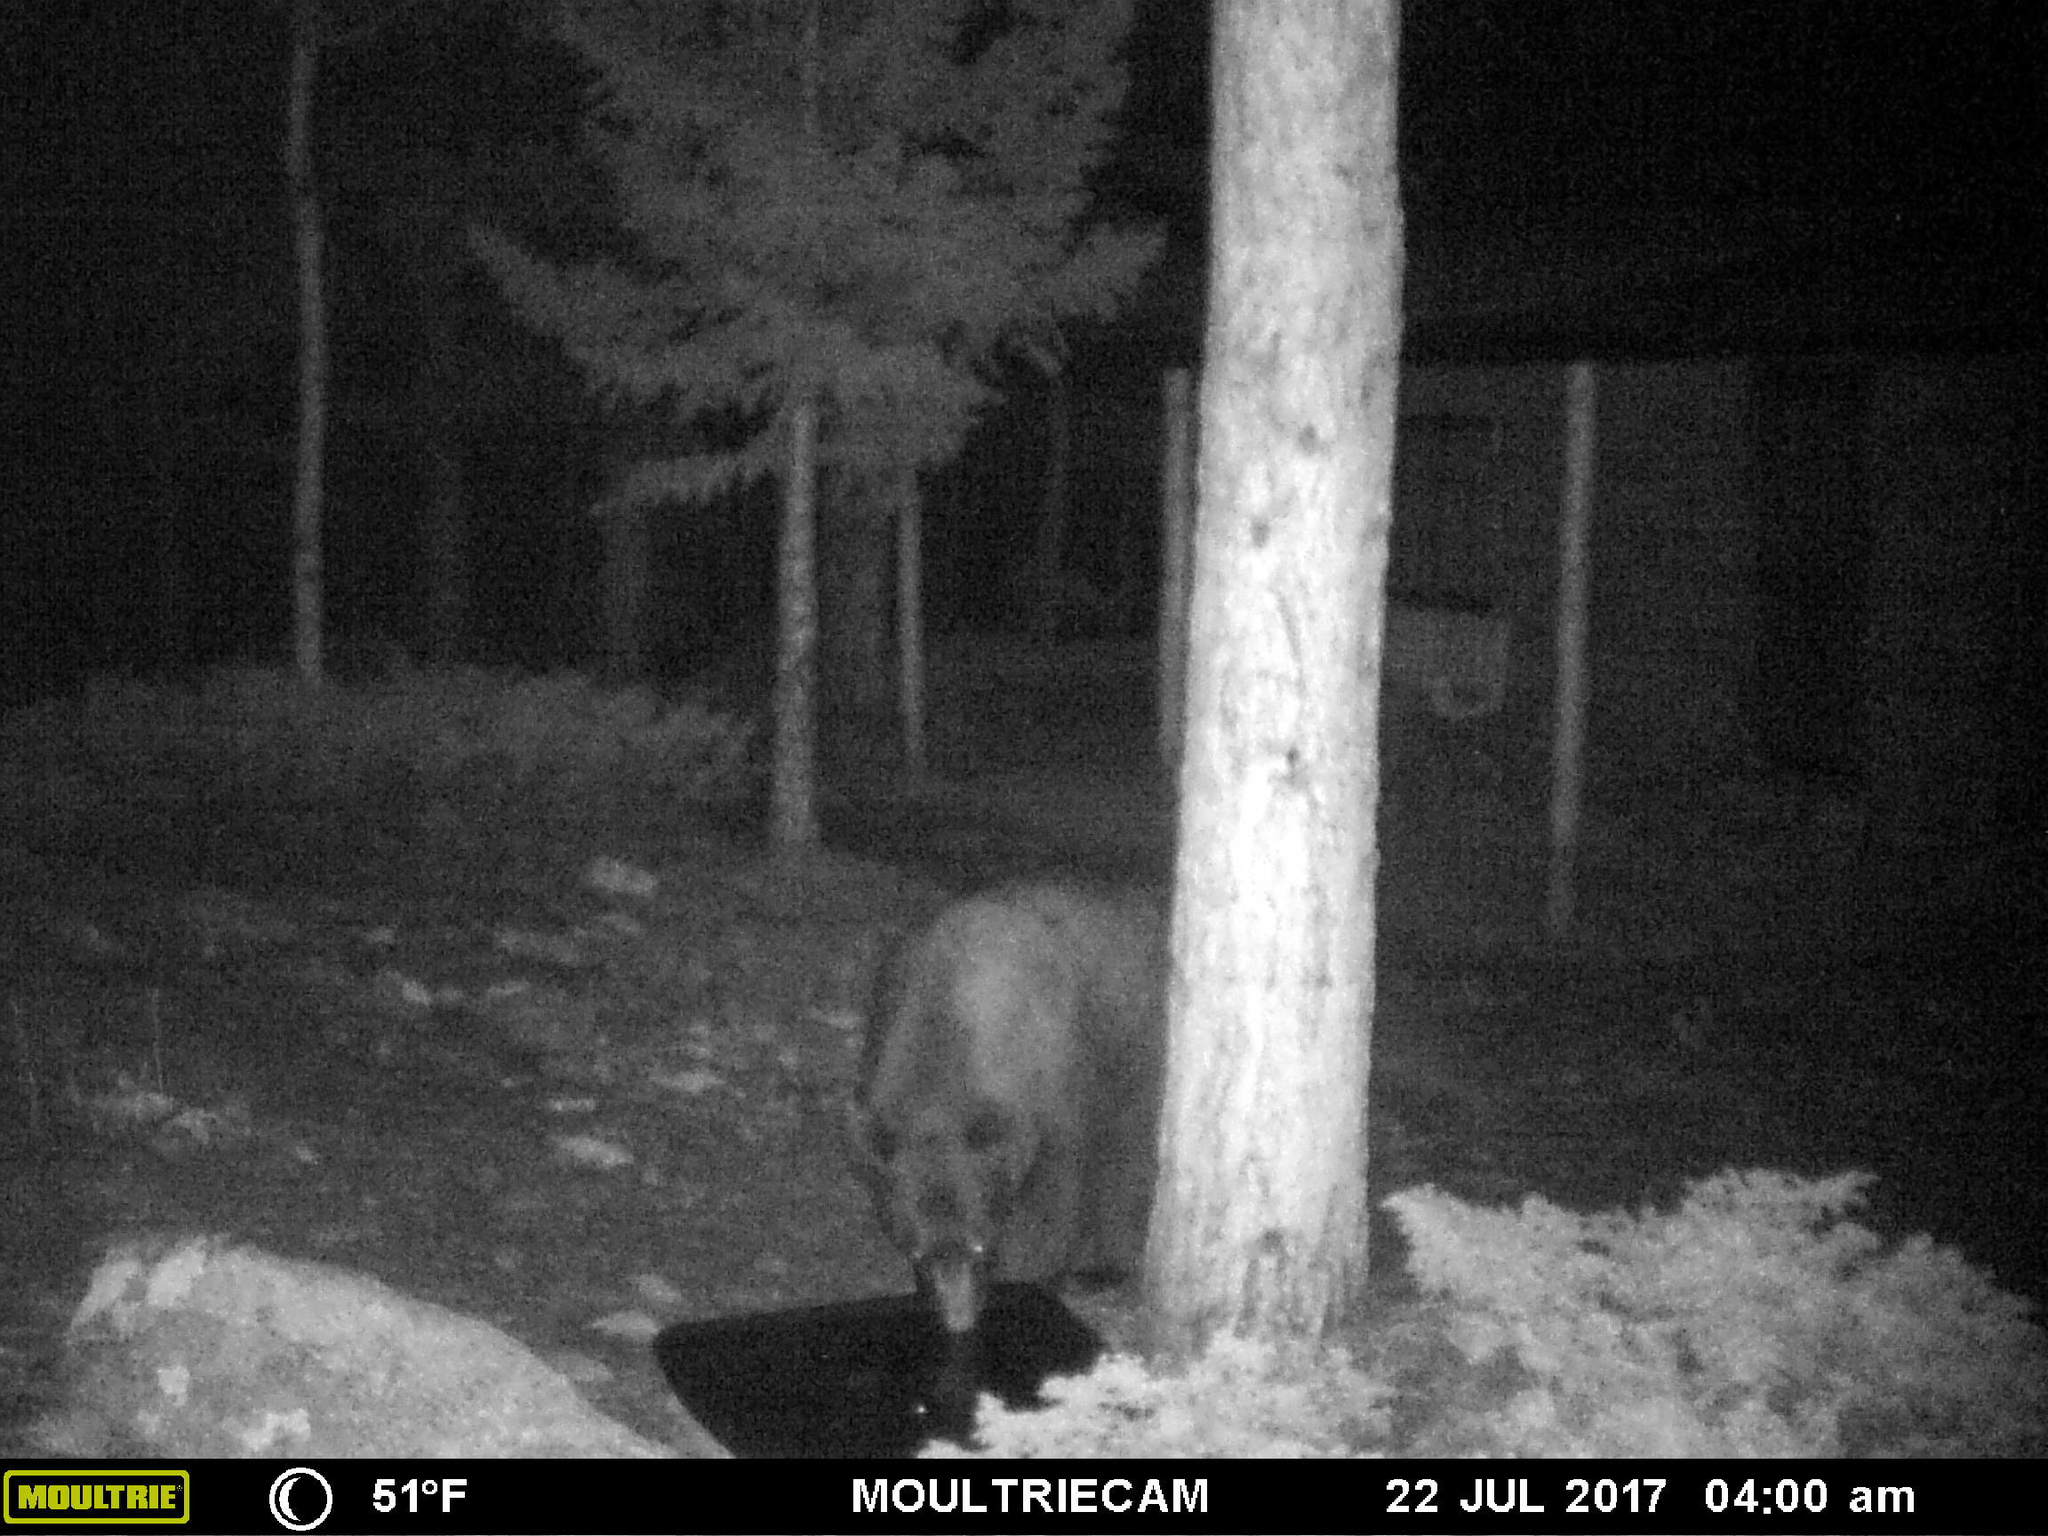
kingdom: Animalia
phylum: Chordata
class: Mammalia
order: Carnivora
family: Ursidae
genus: Ursus
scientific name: Ursus americanus
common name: American black bear
